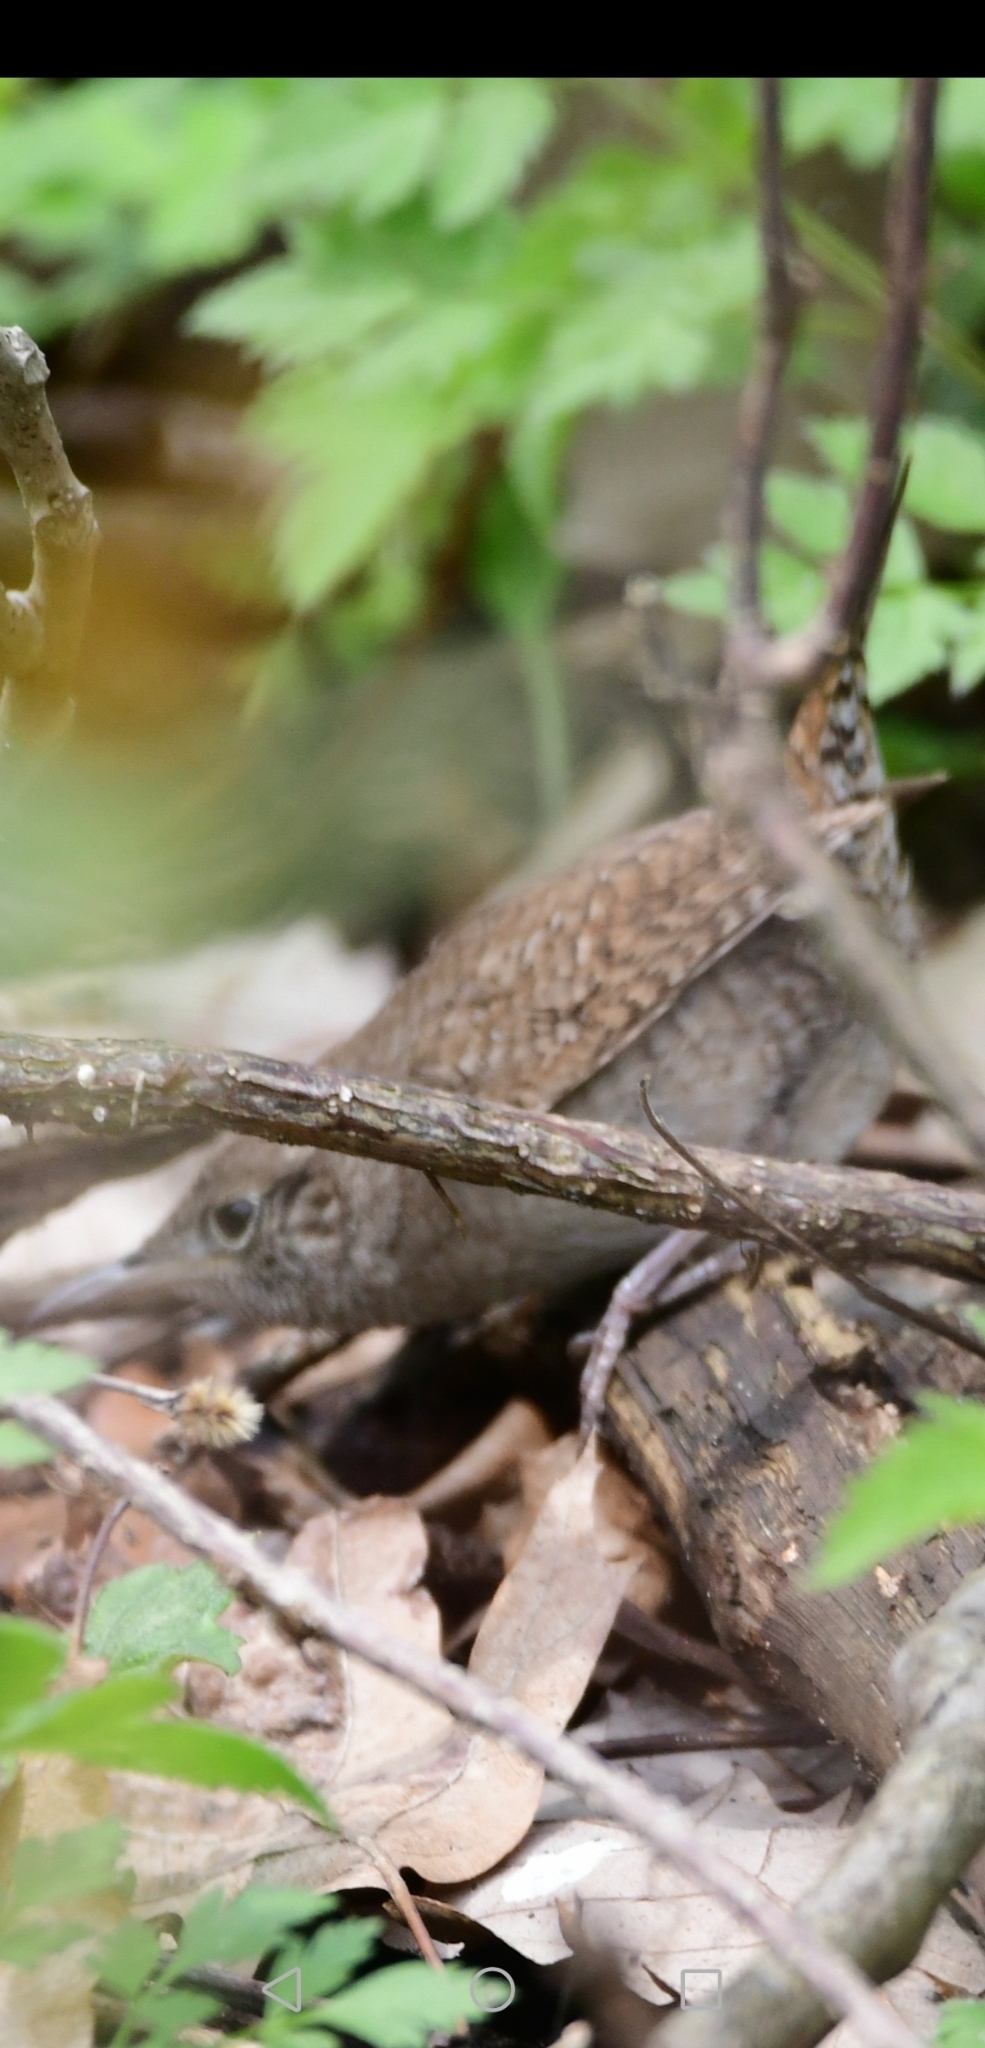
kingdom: Animalia
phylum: Chordata
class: Aves
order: Passeriformes
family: Troglodytidae
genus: Troglodytes
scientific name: Troglodytes aedon
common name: House wren
